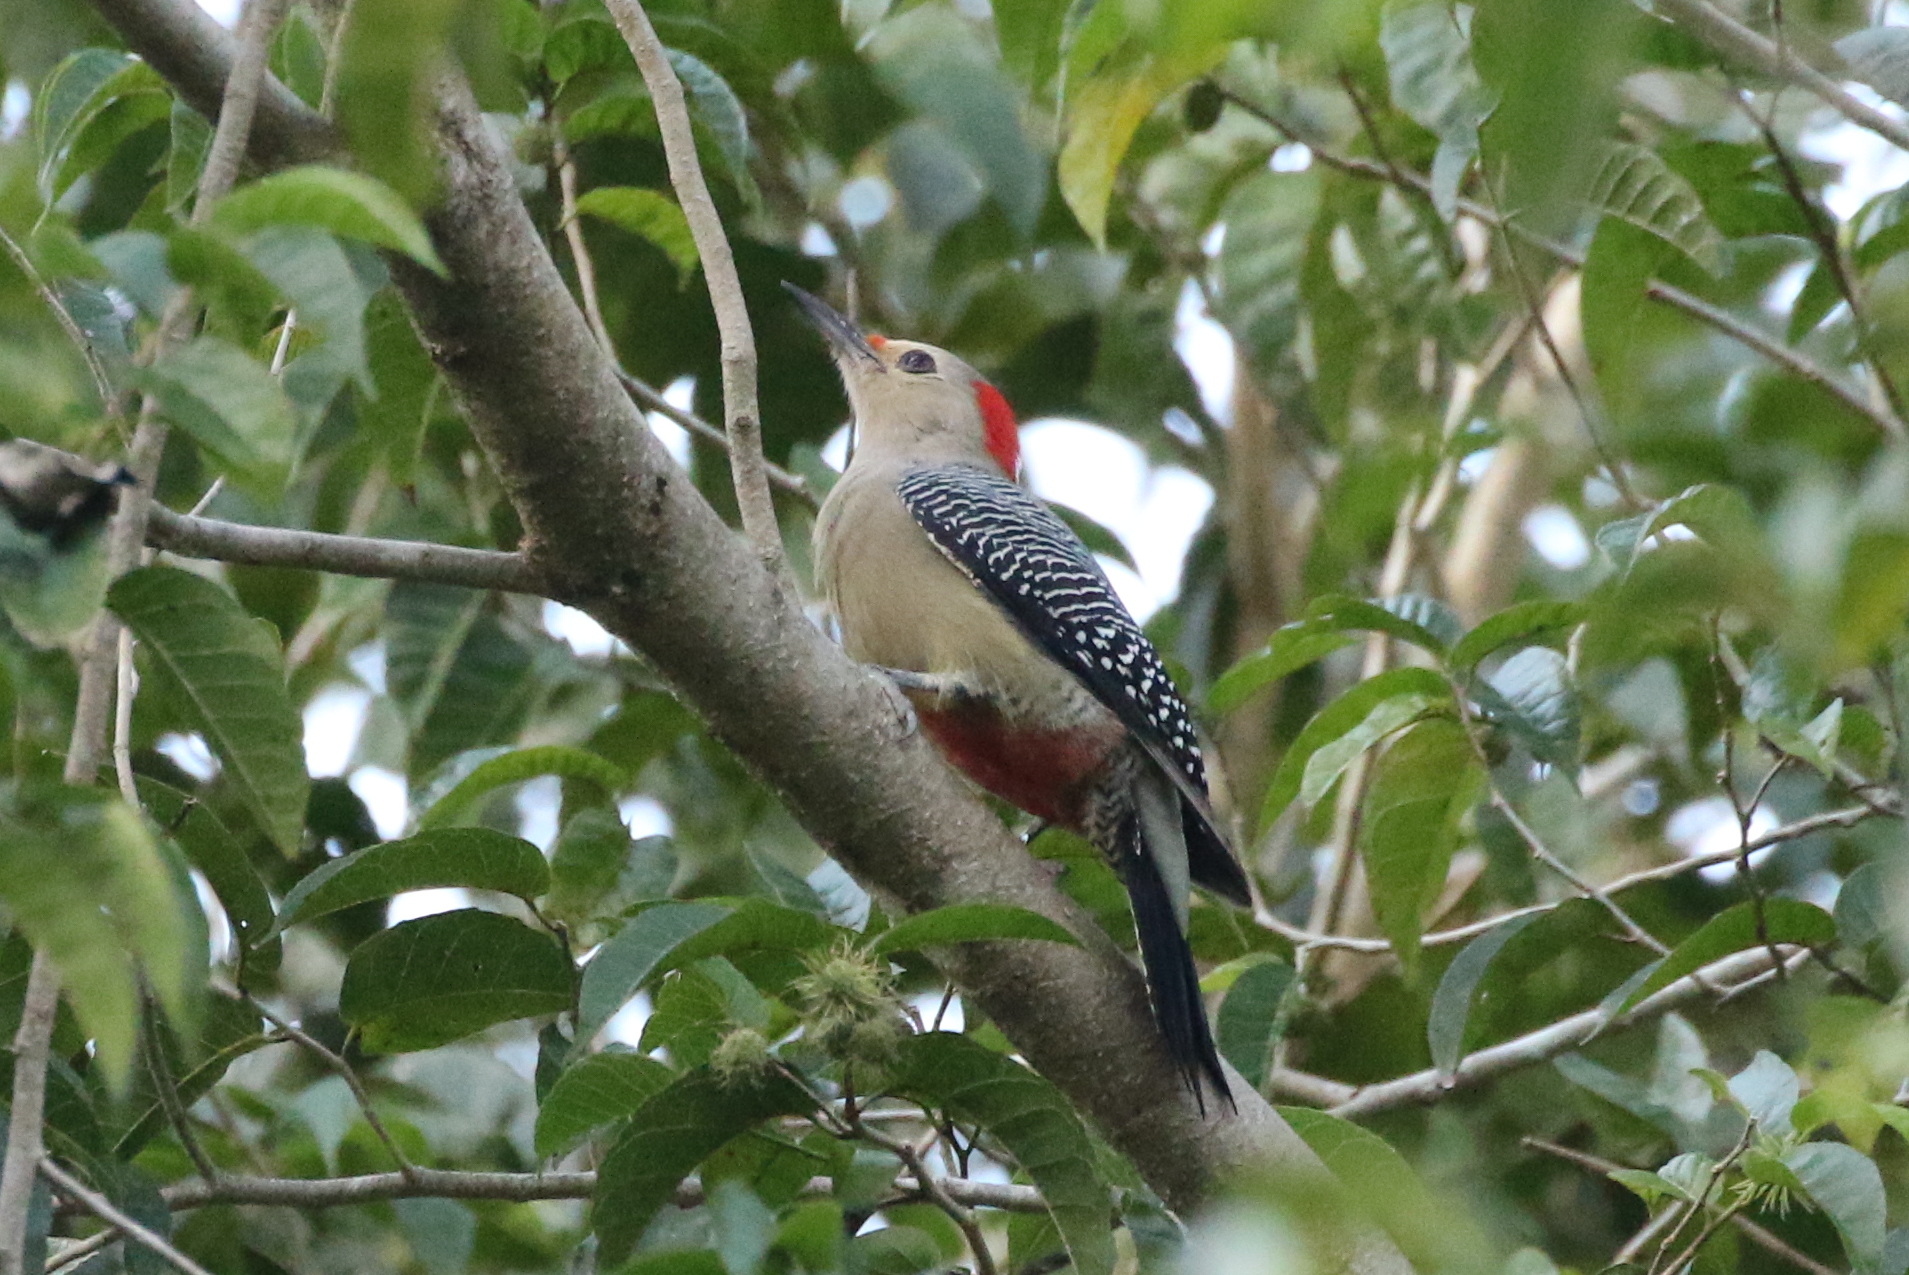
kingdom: Animalia
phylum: Chordata
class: Aves
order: Piciformes
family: Picidae
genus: Melanerpes
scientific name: Melanerpes aurifrons
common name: Golden-fronted woodpecker
